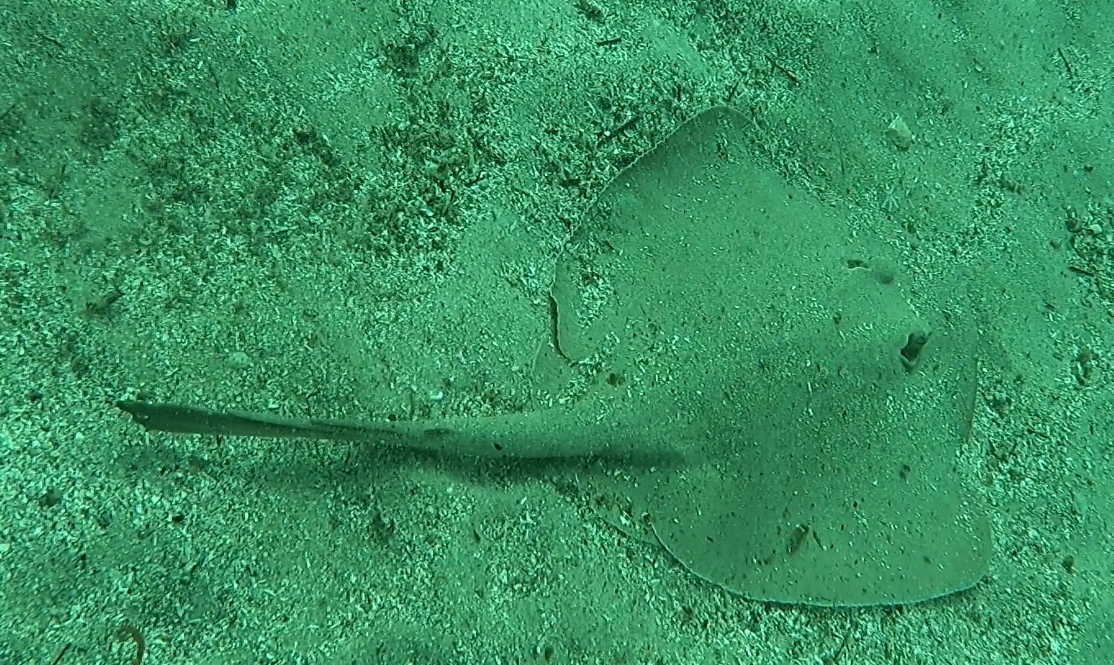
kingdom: Animalia
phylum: Chordata
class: Elasmobranchii
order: Myliobatiformes
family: Urolophidae
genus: Trygonoptera
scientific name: Trygonoptera testacea
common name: Common stingaree
